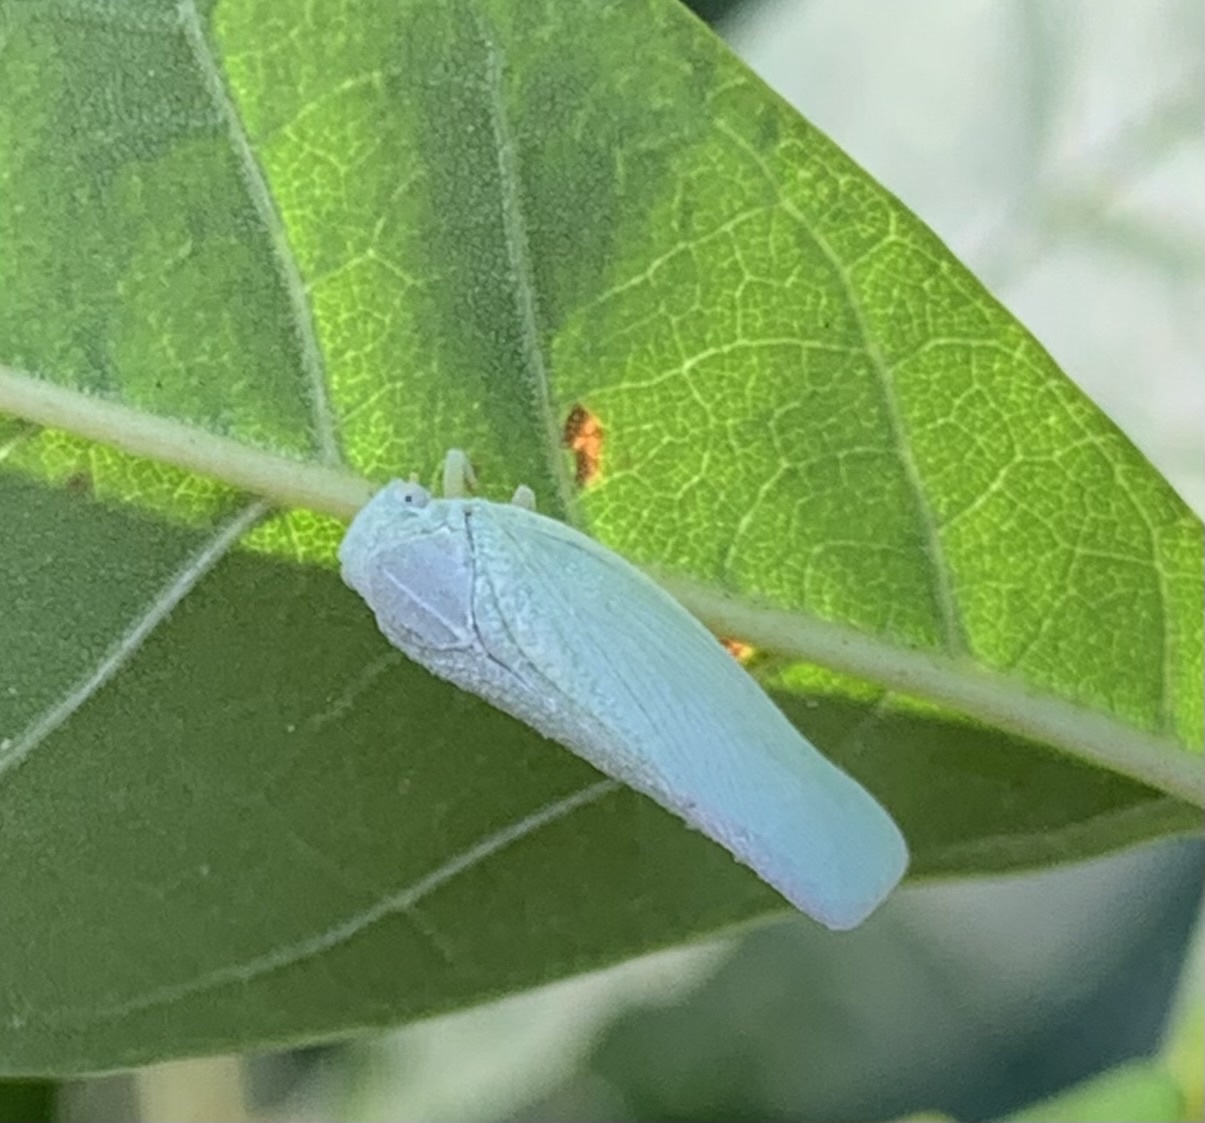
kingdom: Animalia
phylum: Arthropoda
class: Insecta
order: Hemiptera
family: Flatidae
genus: Flatormenis
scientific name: Flatormenis proxima
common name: Northern flatid planthopper
